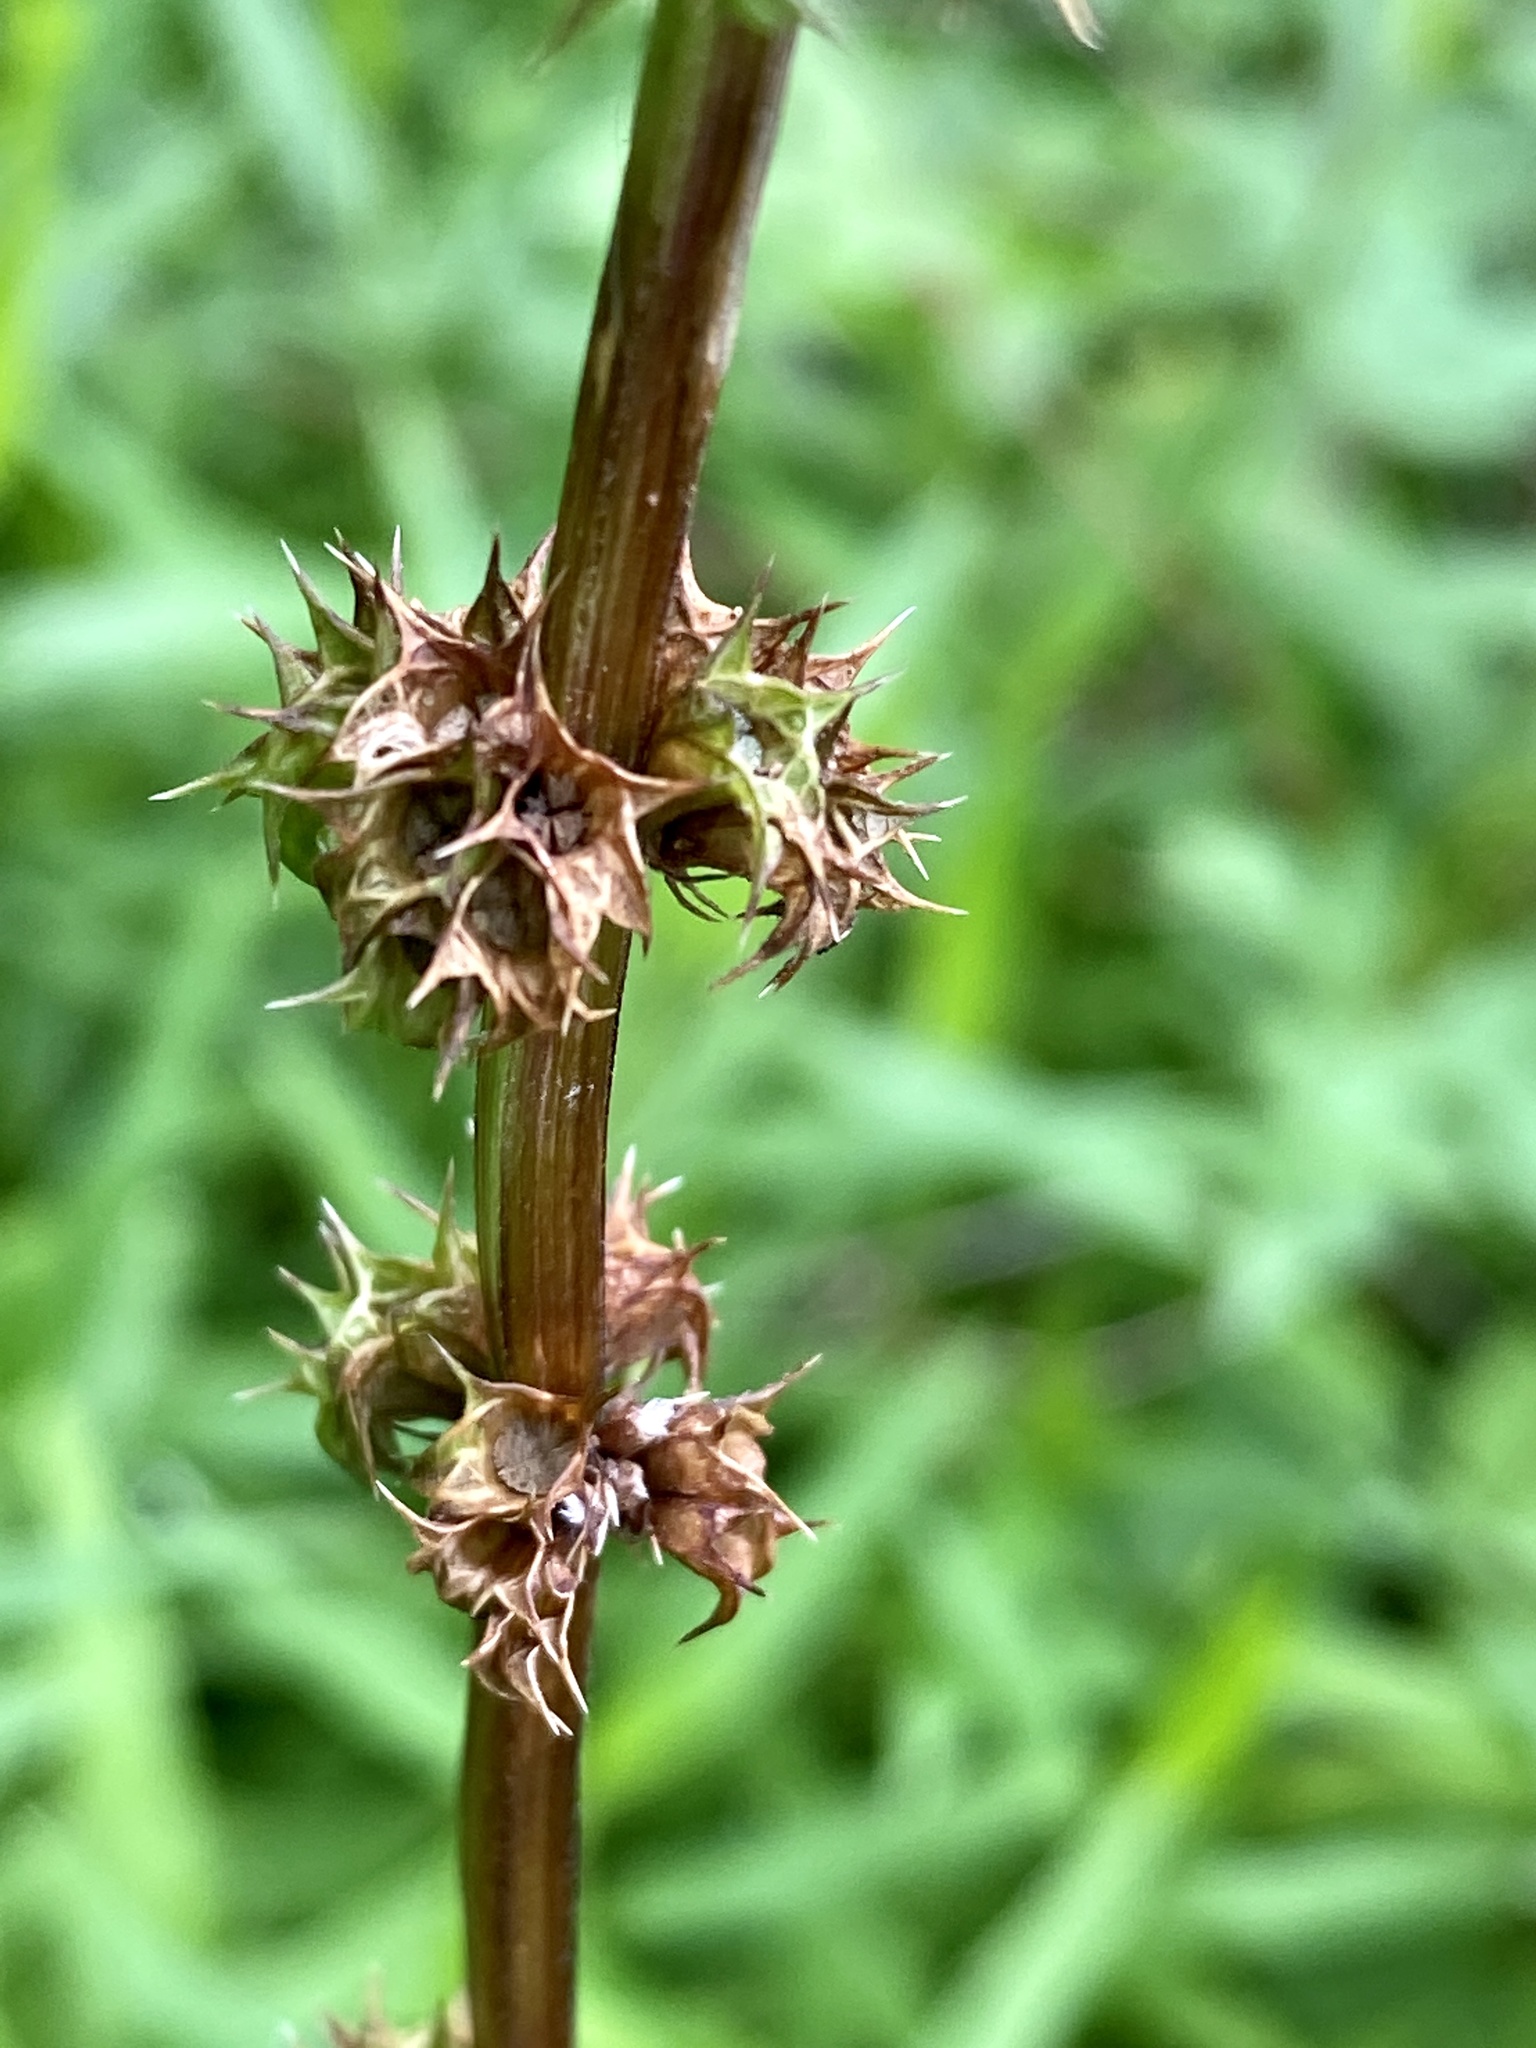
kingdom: Plantae
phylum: Tracheophyta
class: Magnoliopsida
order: Lamiales
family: Lamiaceae
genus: Leonurus
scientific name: Leonurus cardiaca
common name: Motherwort
